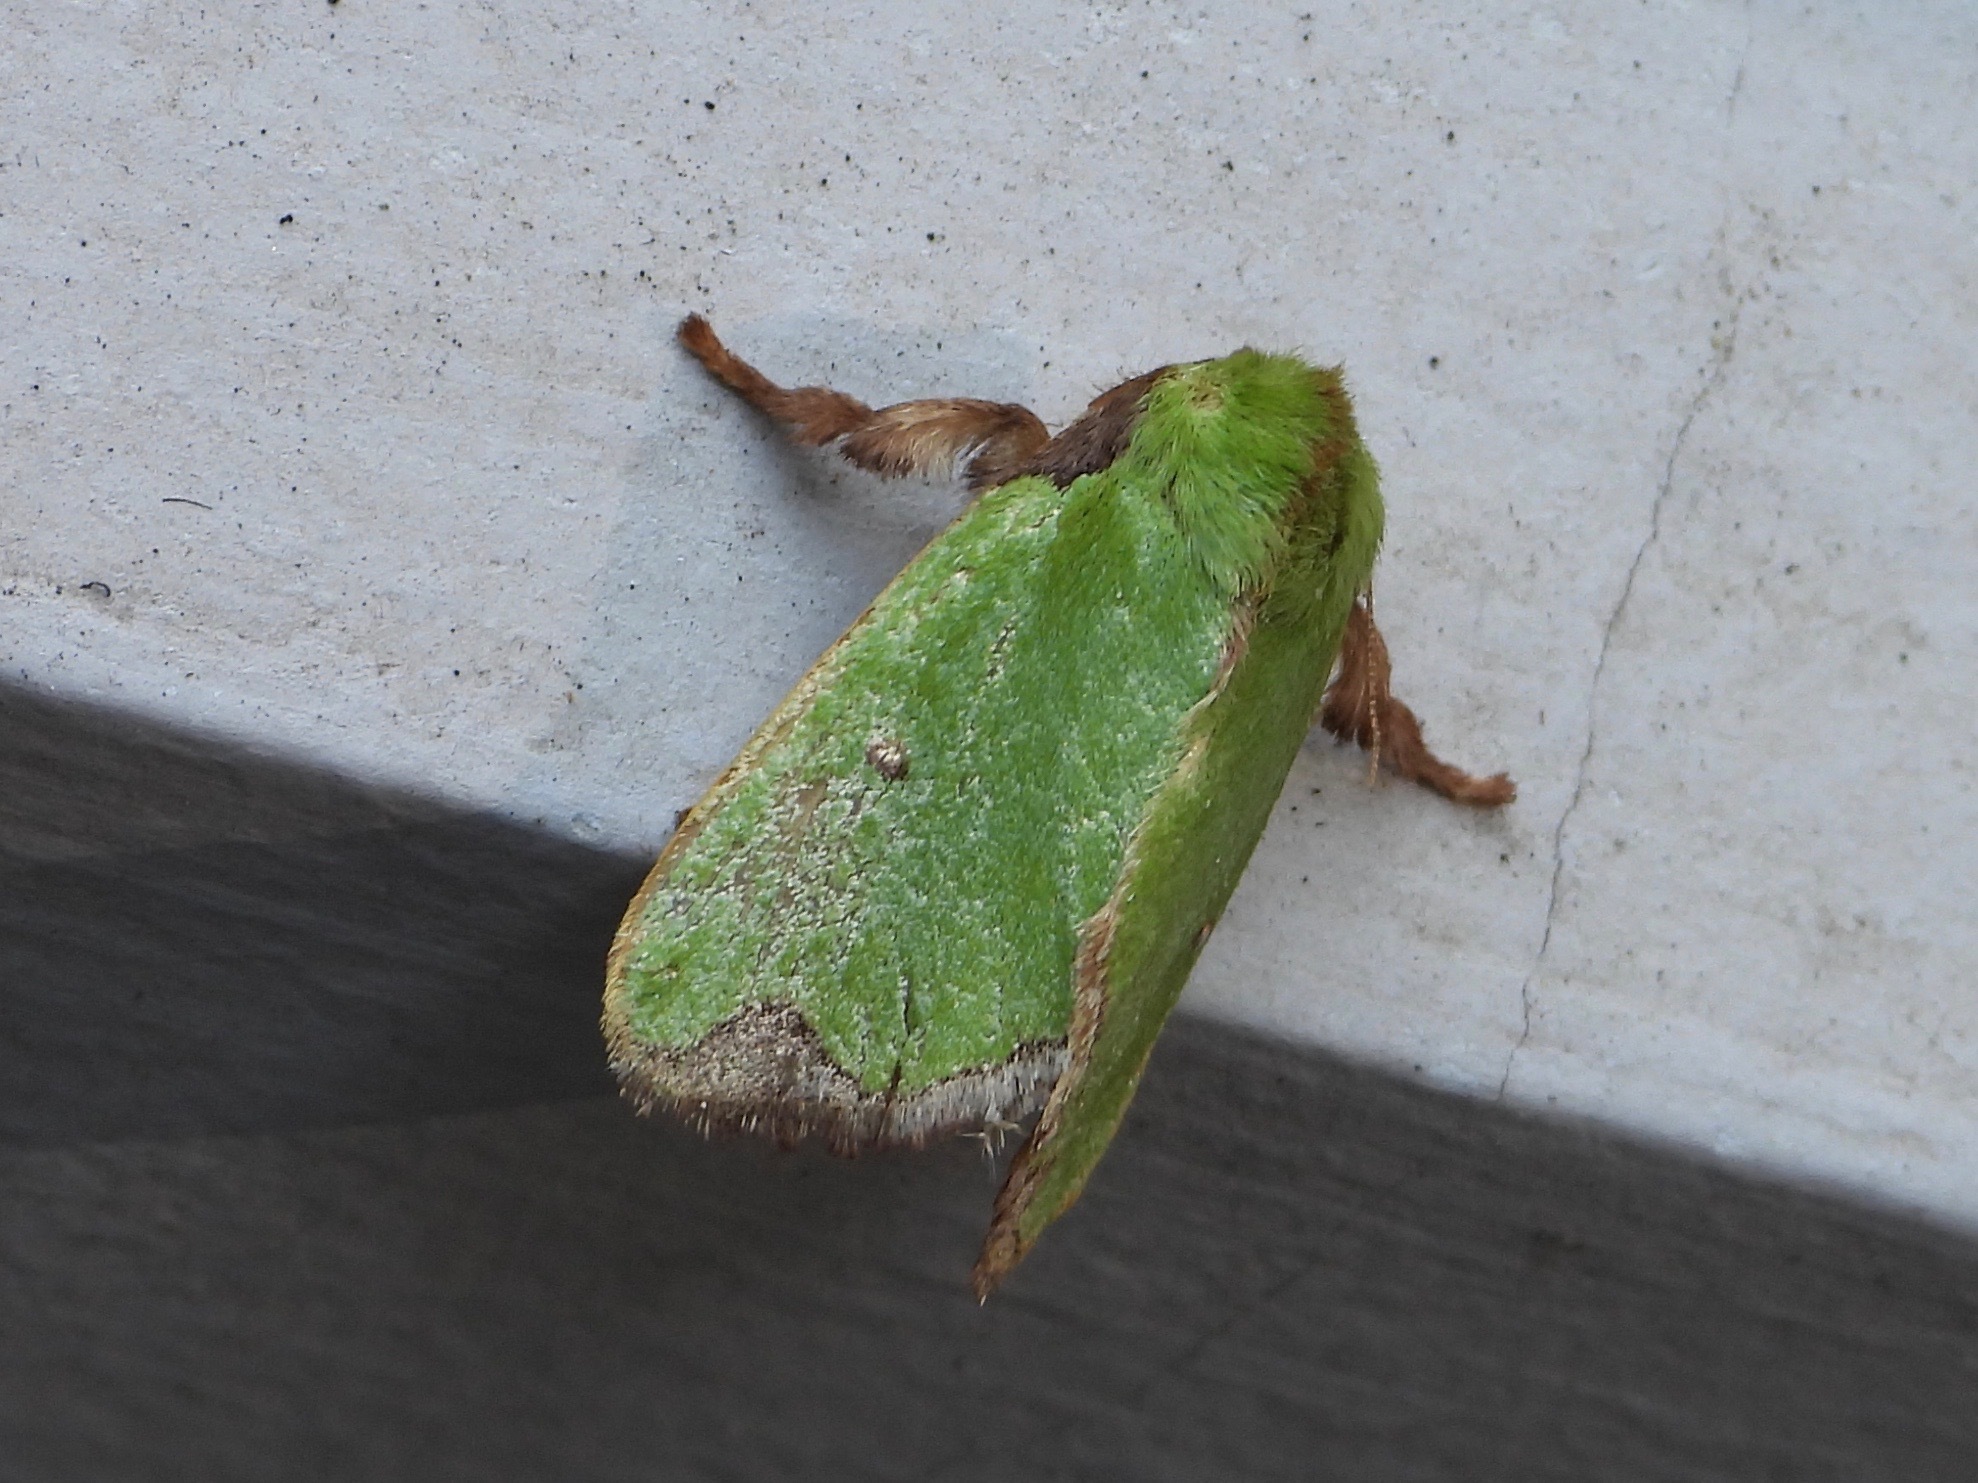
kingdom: Animalia
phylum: Arthropoda
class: Insecta
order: Lepidoptera
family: Limacodidae
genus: Parasa
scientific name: Parasa wellesca
